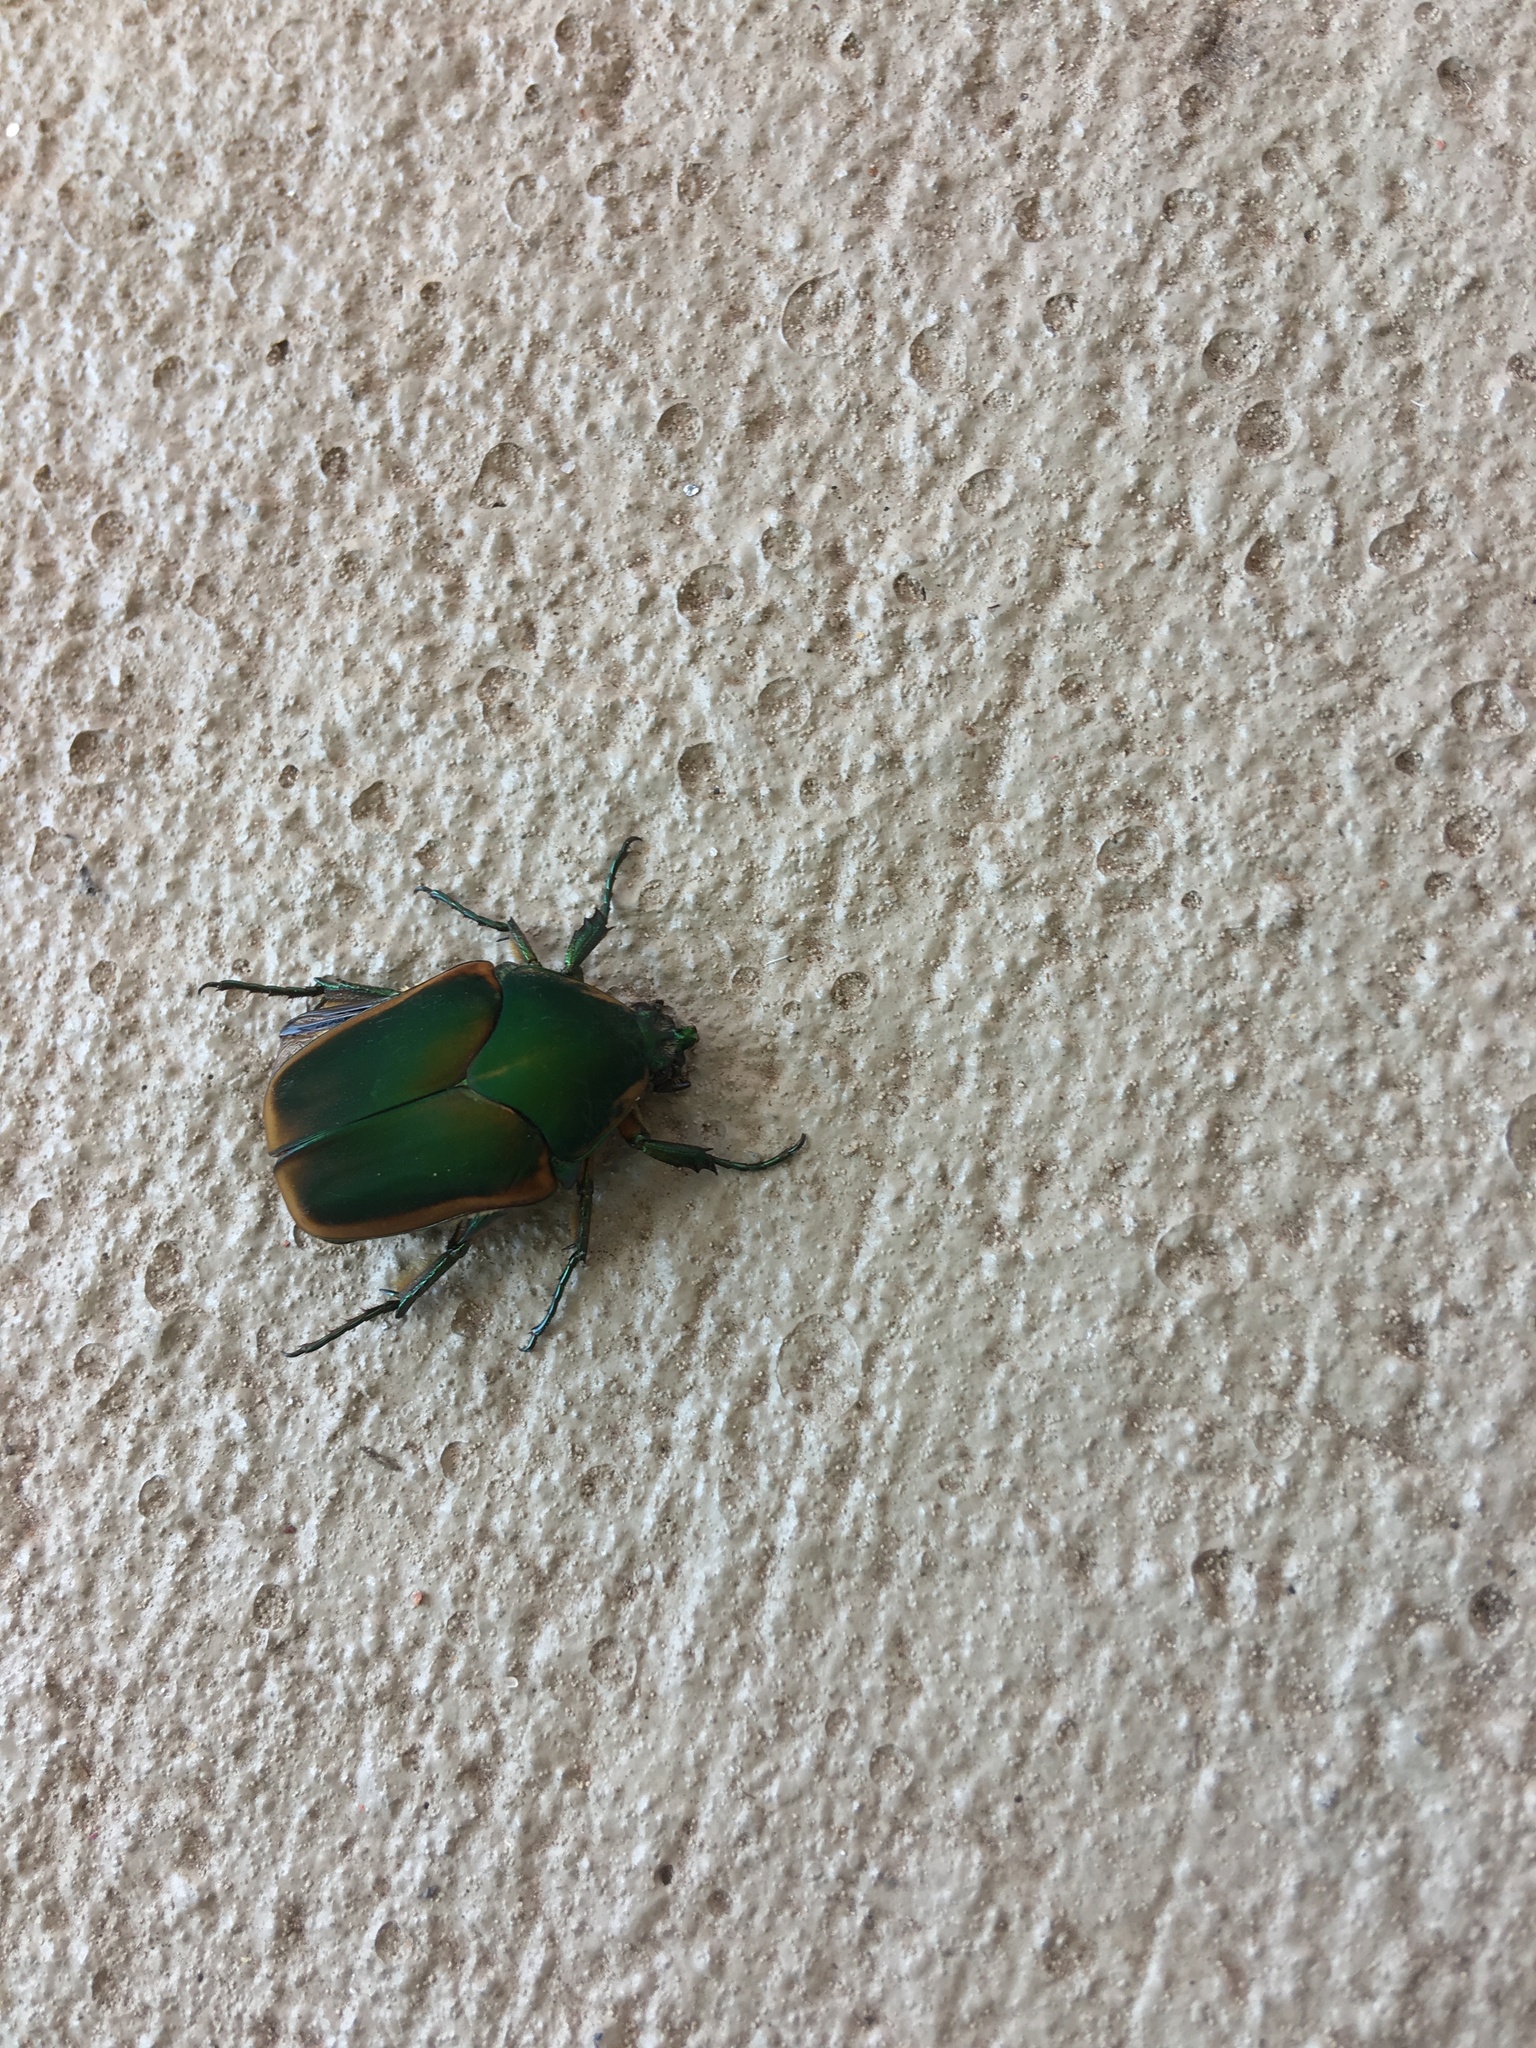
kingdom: Animalia
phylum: Arthropoda
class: Insecta
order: Coleoptera
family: Scarabaeidae
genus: Cotinis
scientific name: Cotinis nitida
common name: Common green june beetle
